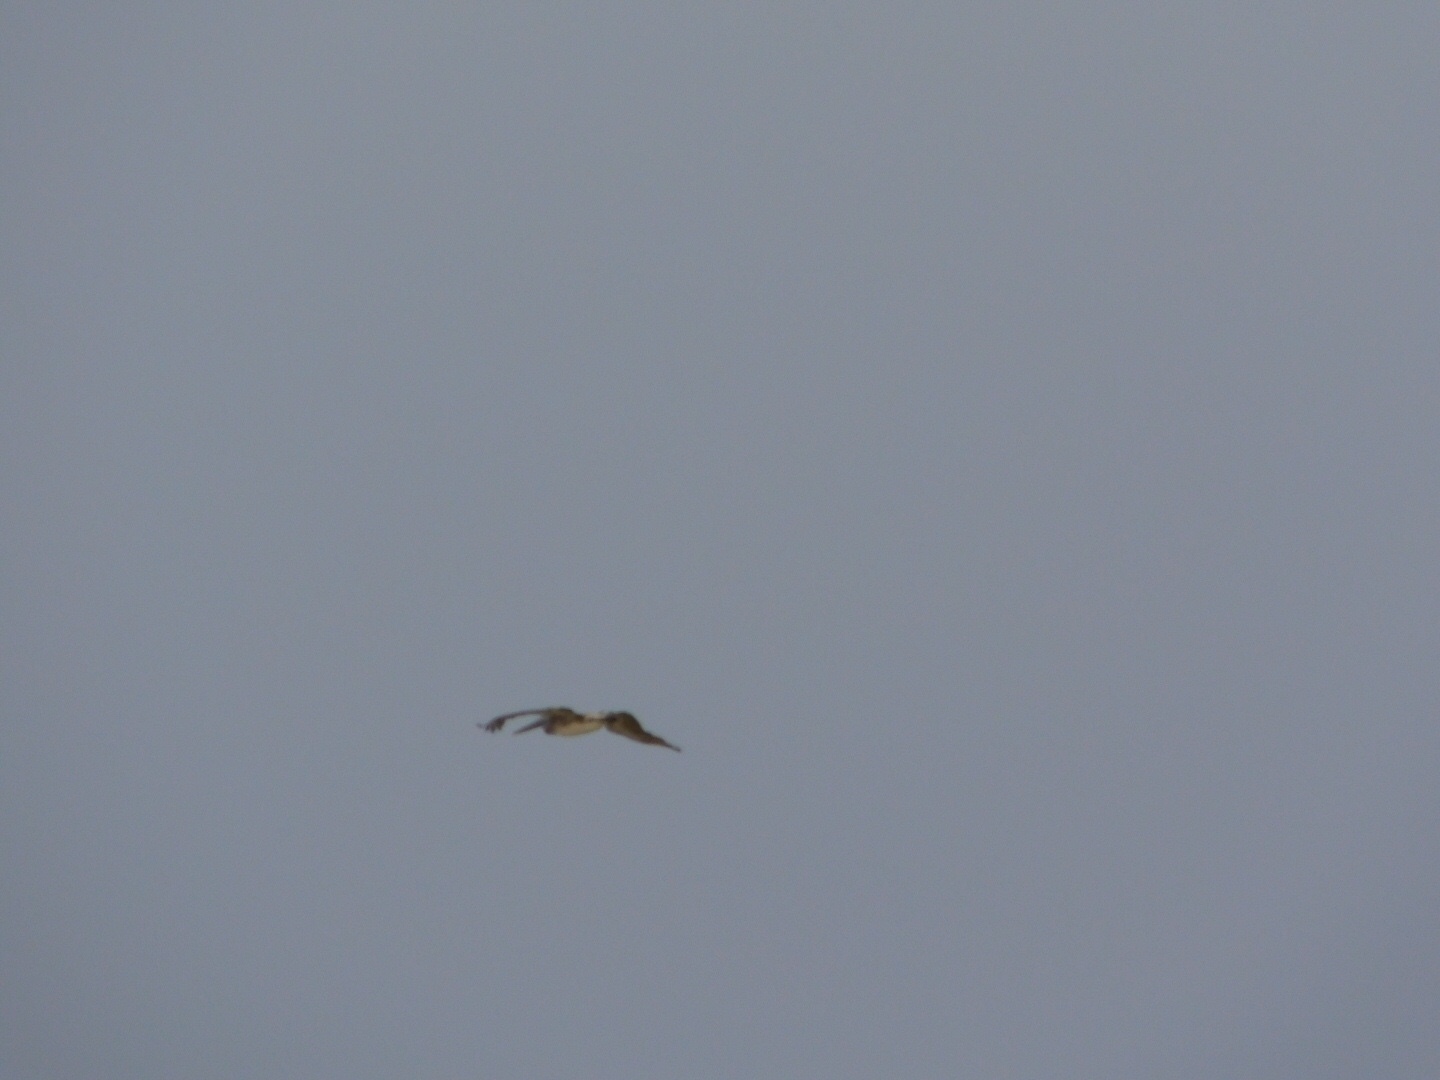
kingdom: Animalia
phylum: Chordata
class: Aves
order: Pelecaniformes
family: Pelecanidae
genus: Pelecanus
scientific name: Pelecanus occidentalis
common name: Brown pelican
